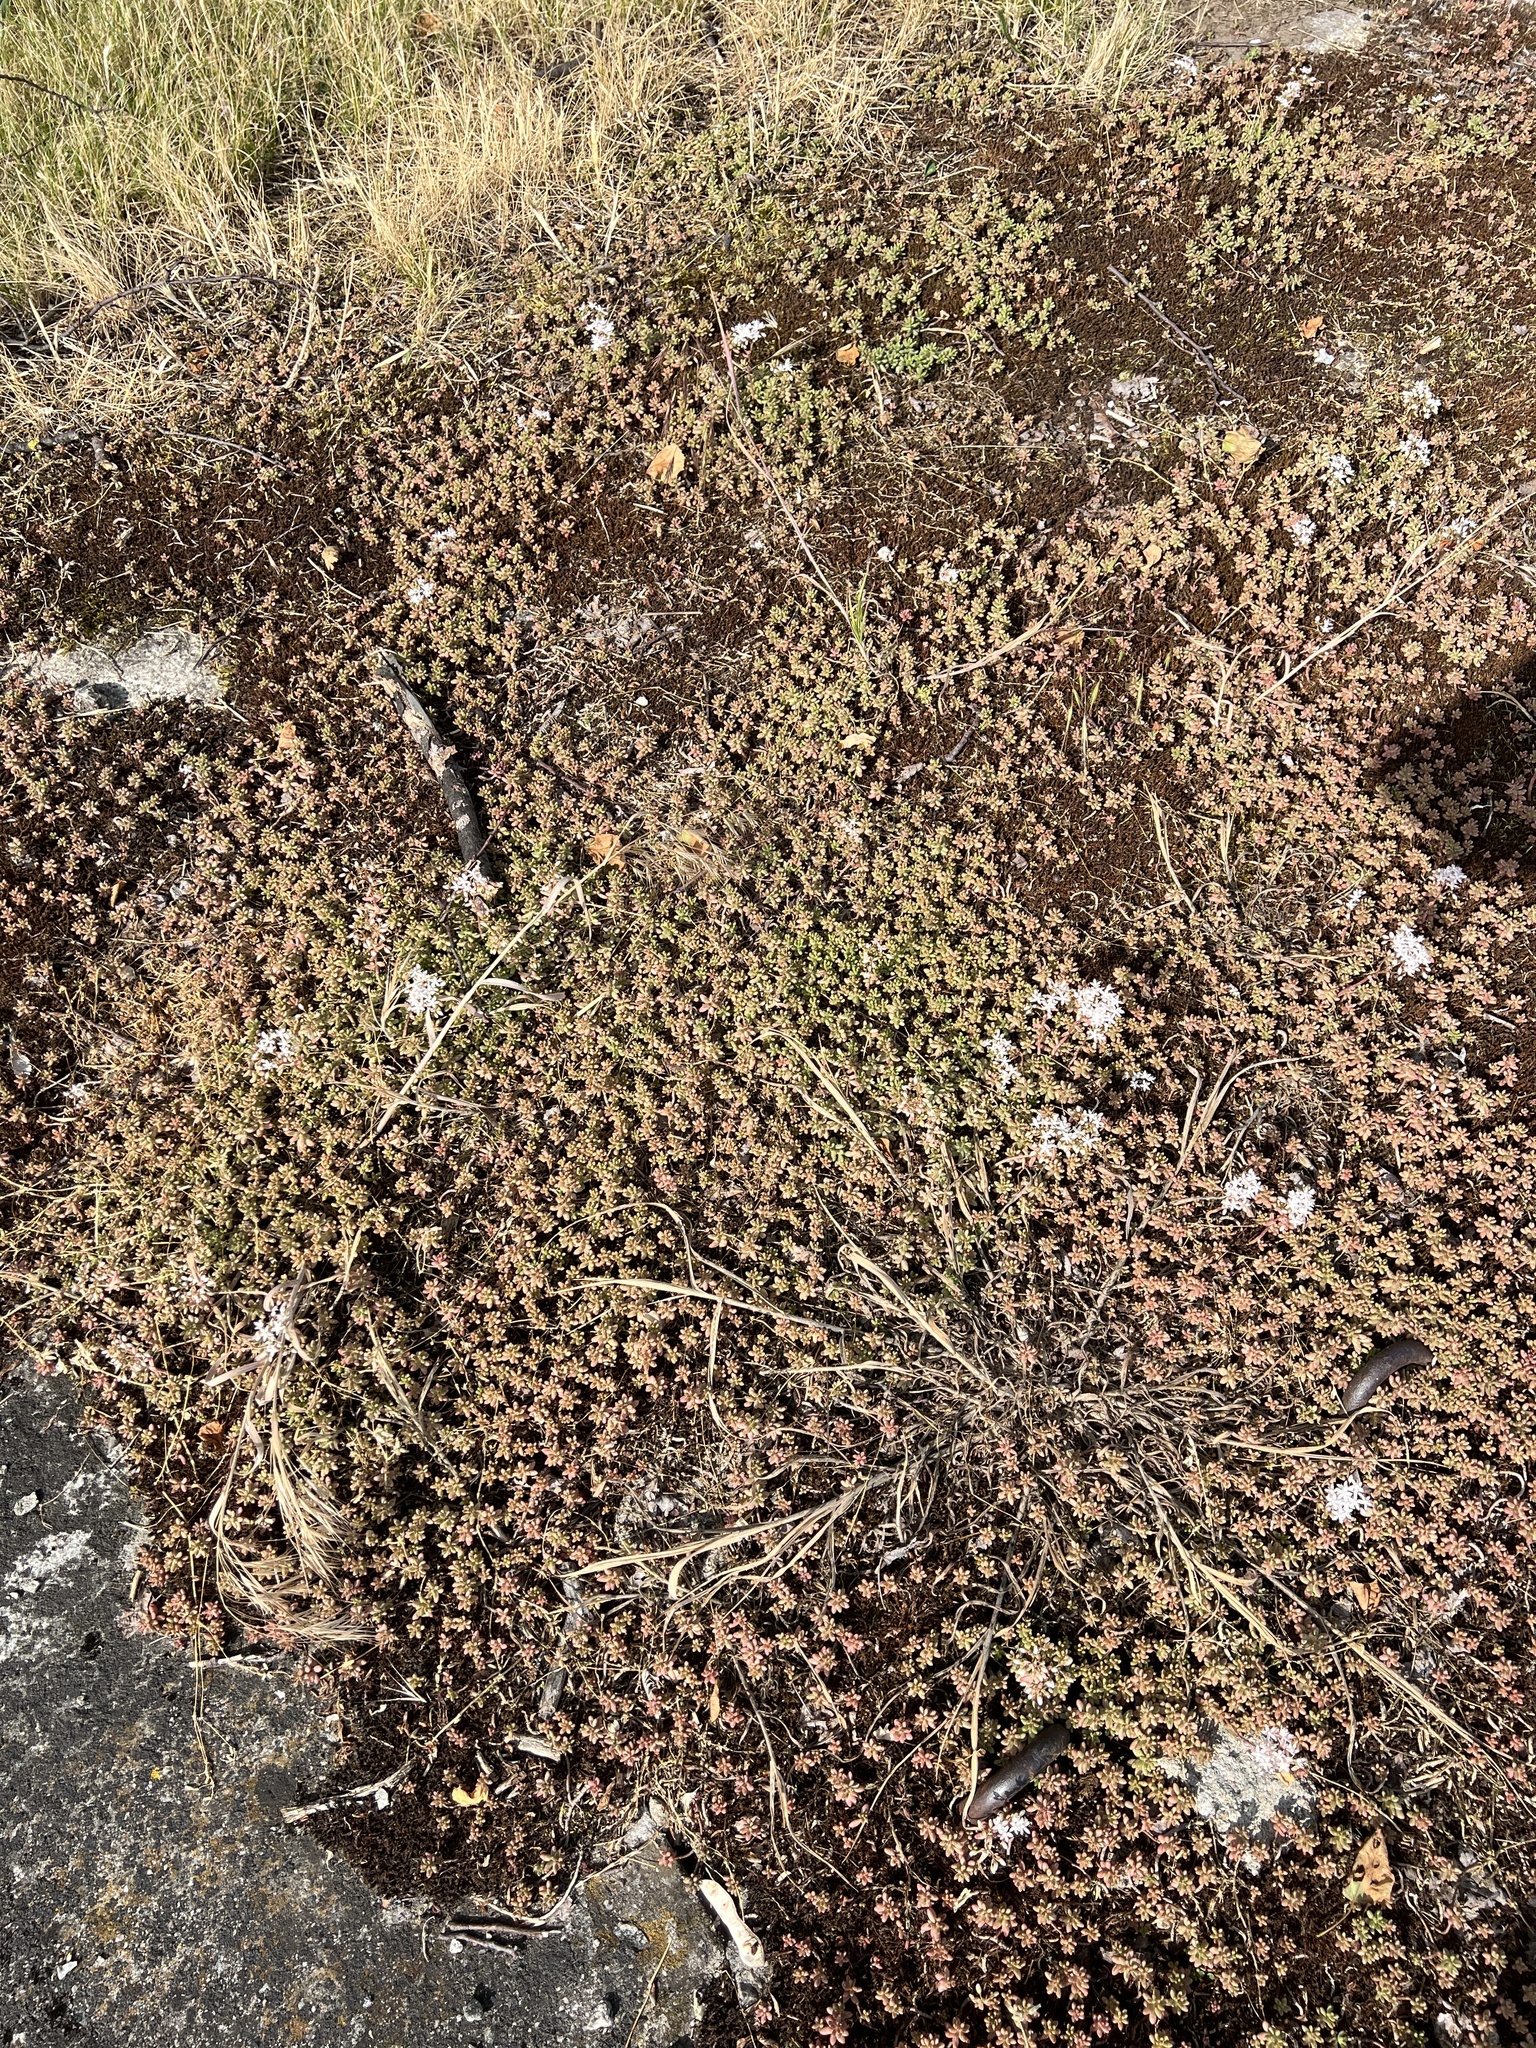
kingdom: Plantae
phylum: Tracheophyta
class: Magnoliopsida
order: Saxifragales
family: Crassulaceae
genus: Sedum
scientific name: Sedum album
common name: White stonecrop
